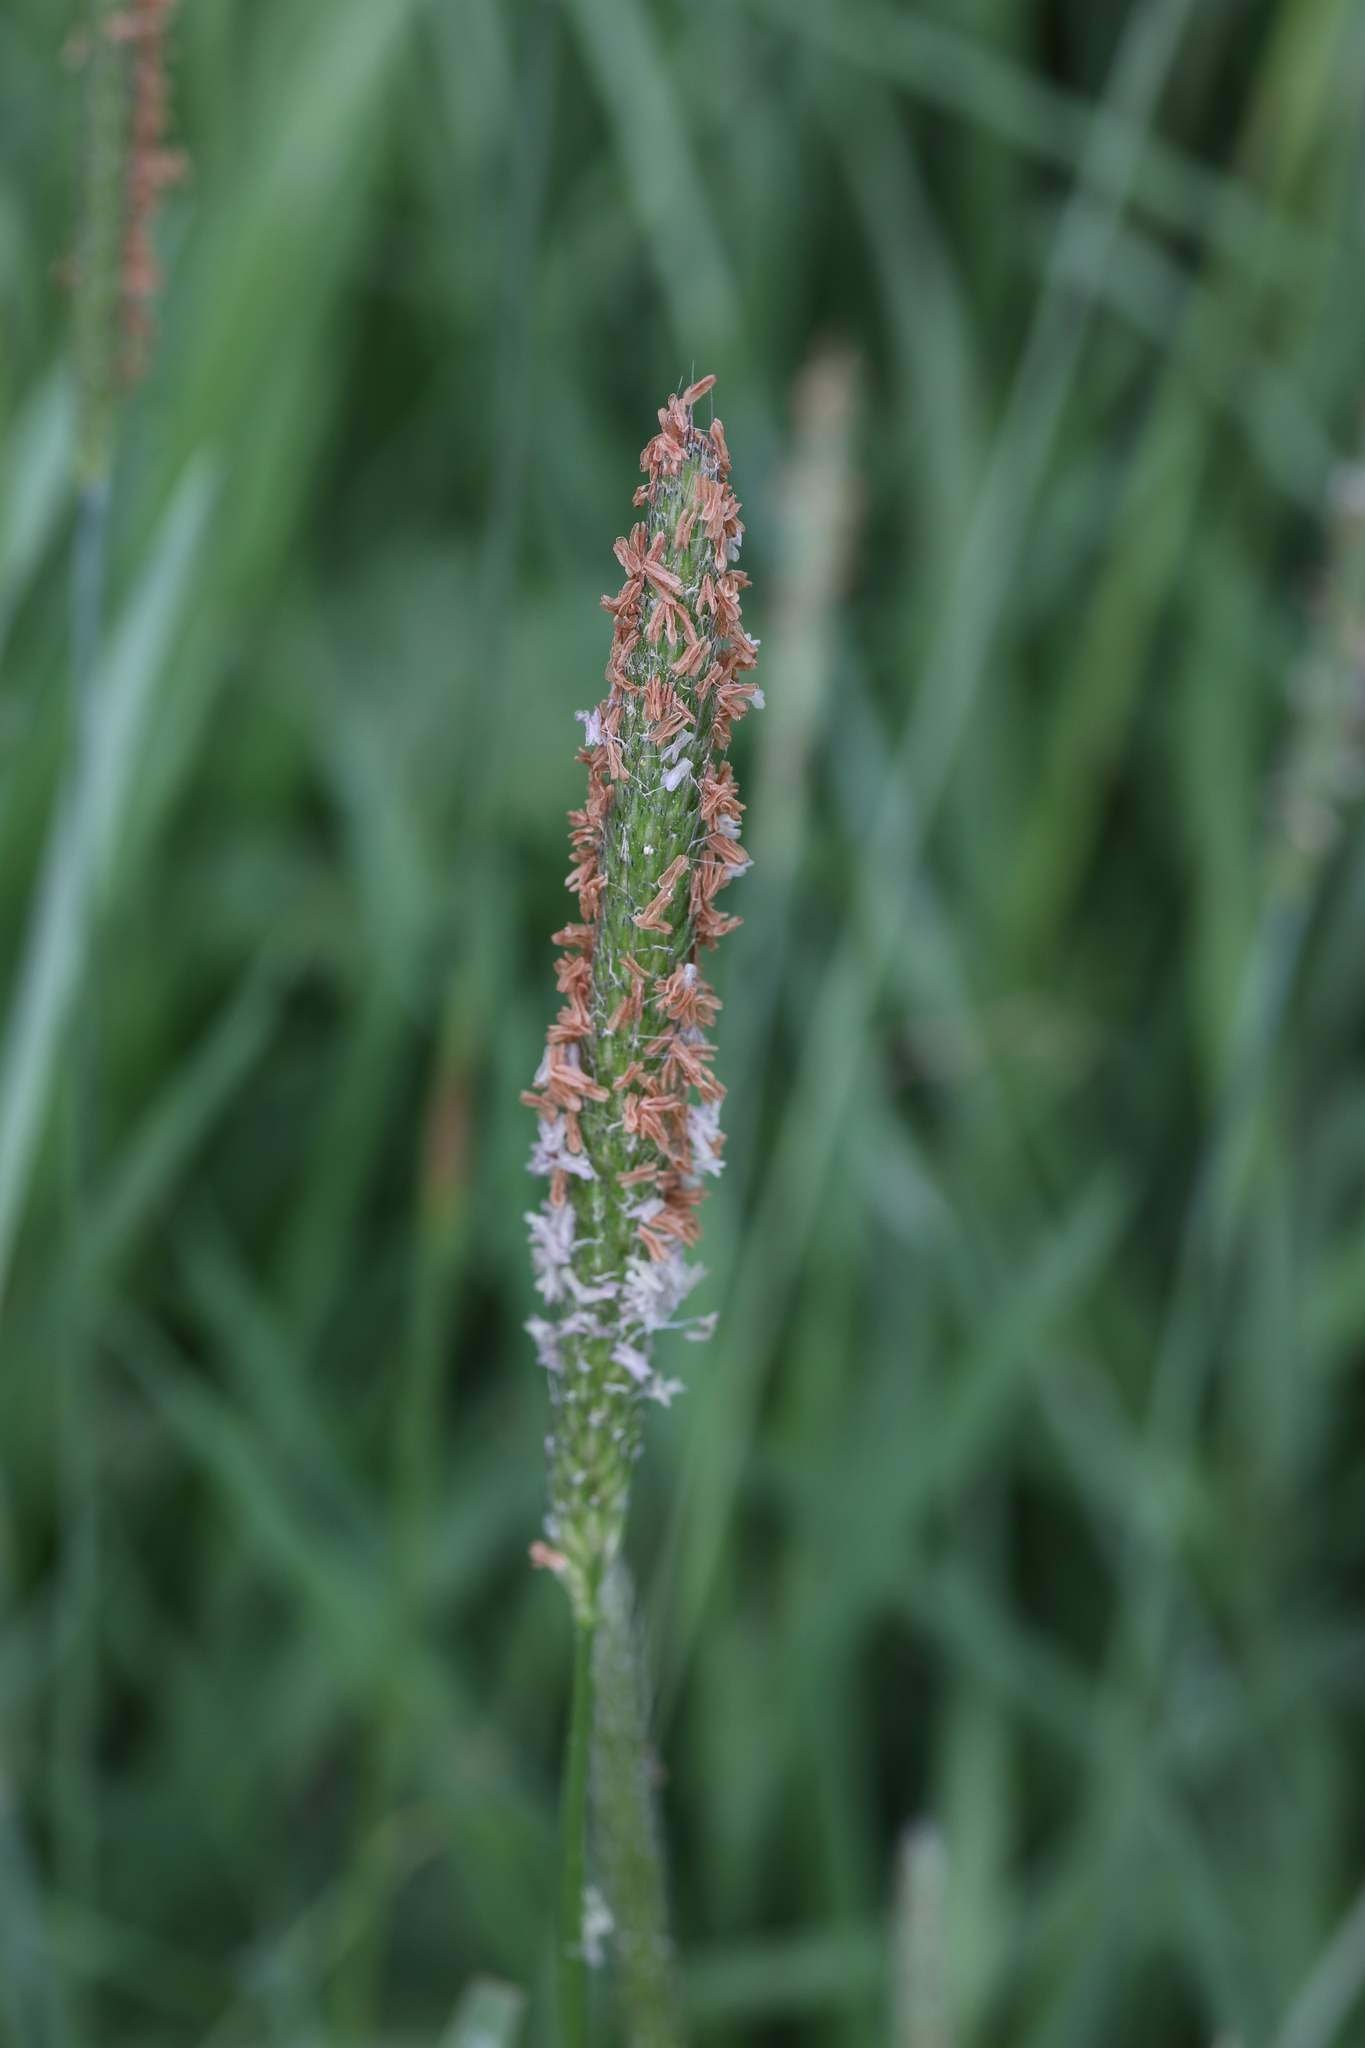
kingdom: Plantae
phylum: Tracheophyta
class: Liliopsida
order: Poales
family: Poaceae
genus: Alopecurus
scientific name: Alopecurus pratensis
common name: Meadow foxtail
